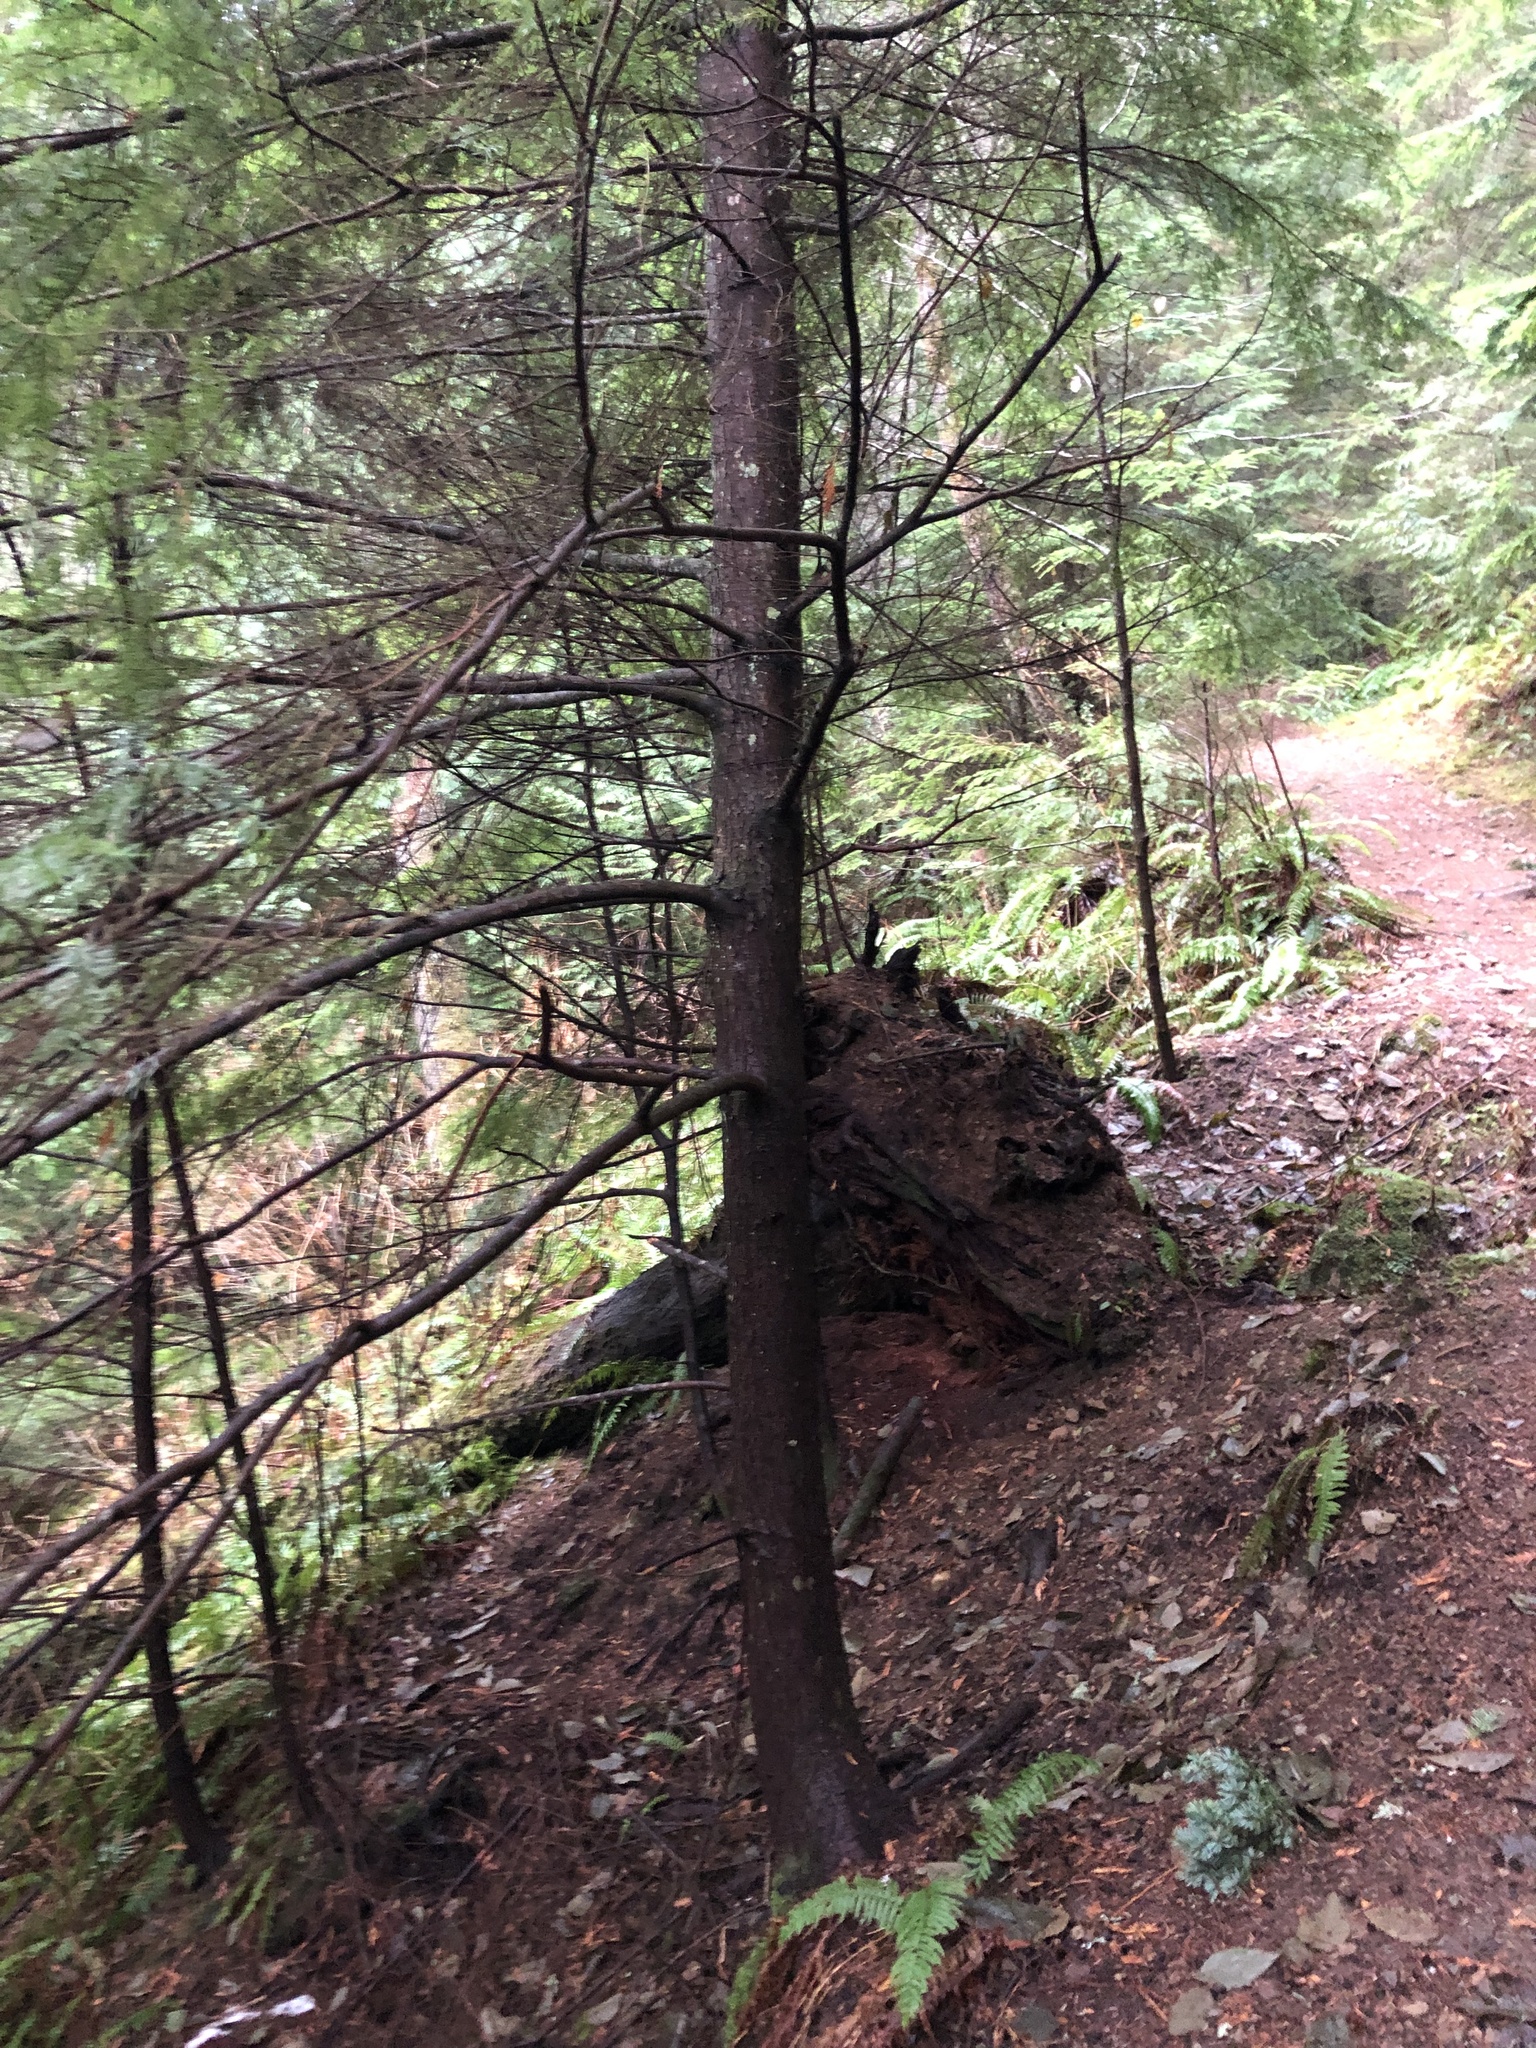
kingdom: Plantae
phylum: Tracheophyta
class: Pinopsida
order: Pinales
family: Pinaceae
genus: Tsuga
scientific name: Tsuga heterophylla
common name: Western hemlock
